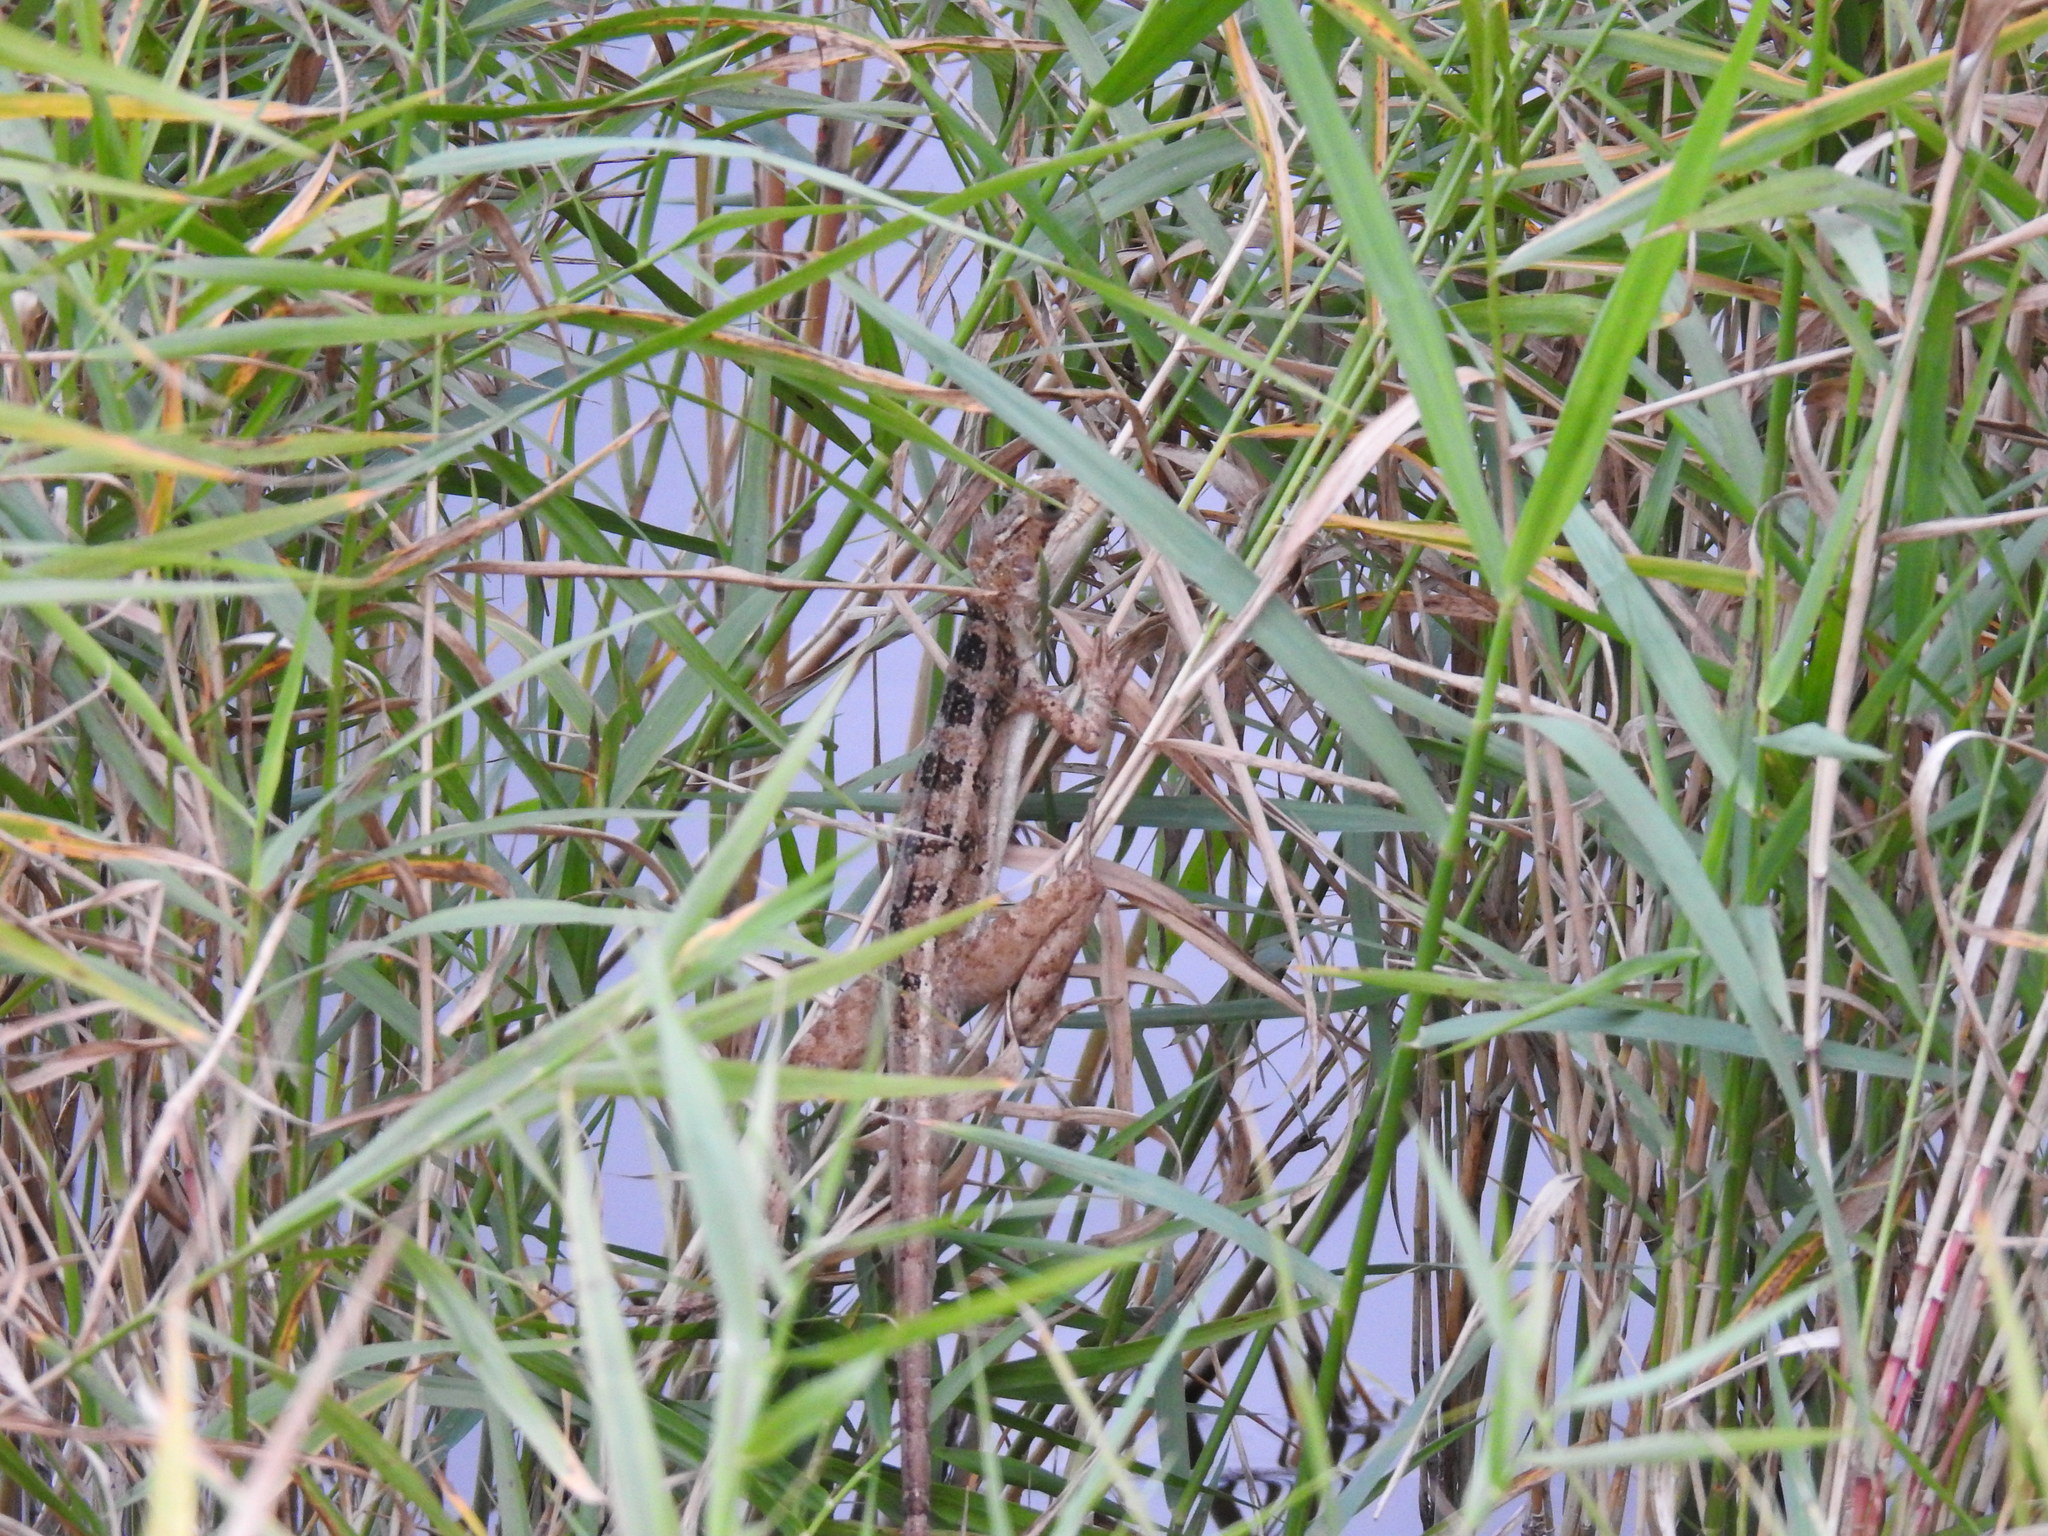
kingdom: Animalia
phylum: Chordata
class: Squamata
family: Corytophanidae
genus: Basiliscus
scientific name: Basiliscus vittatus
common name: Brown basilisk
